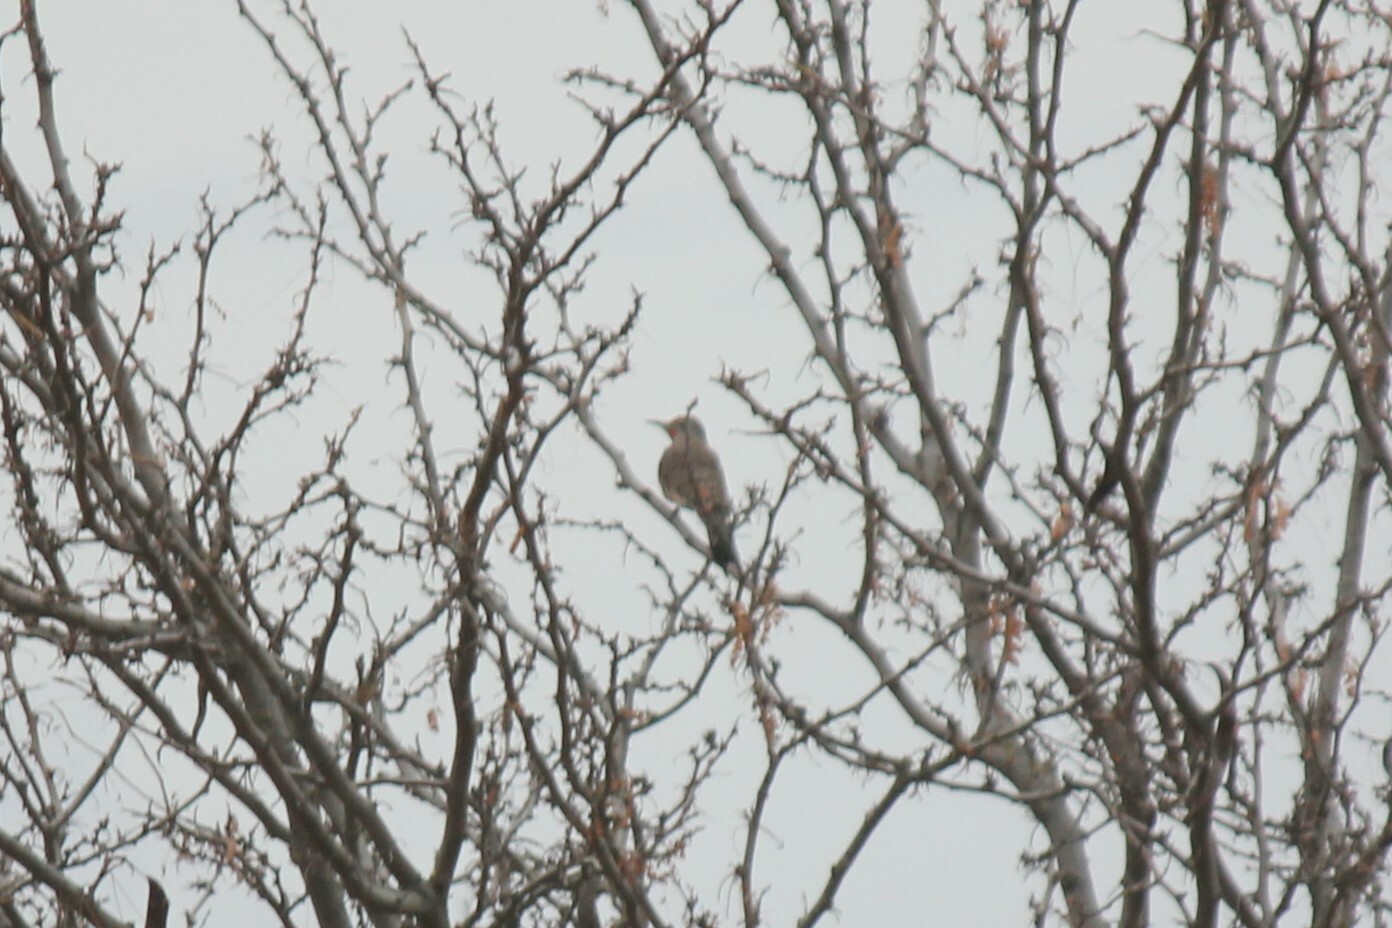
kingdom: Animalia
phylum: Chordata
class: Aves
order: Piciformes
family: Picidae
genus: Colaptes
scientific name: Colaptes auratus
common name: Northern flicker
